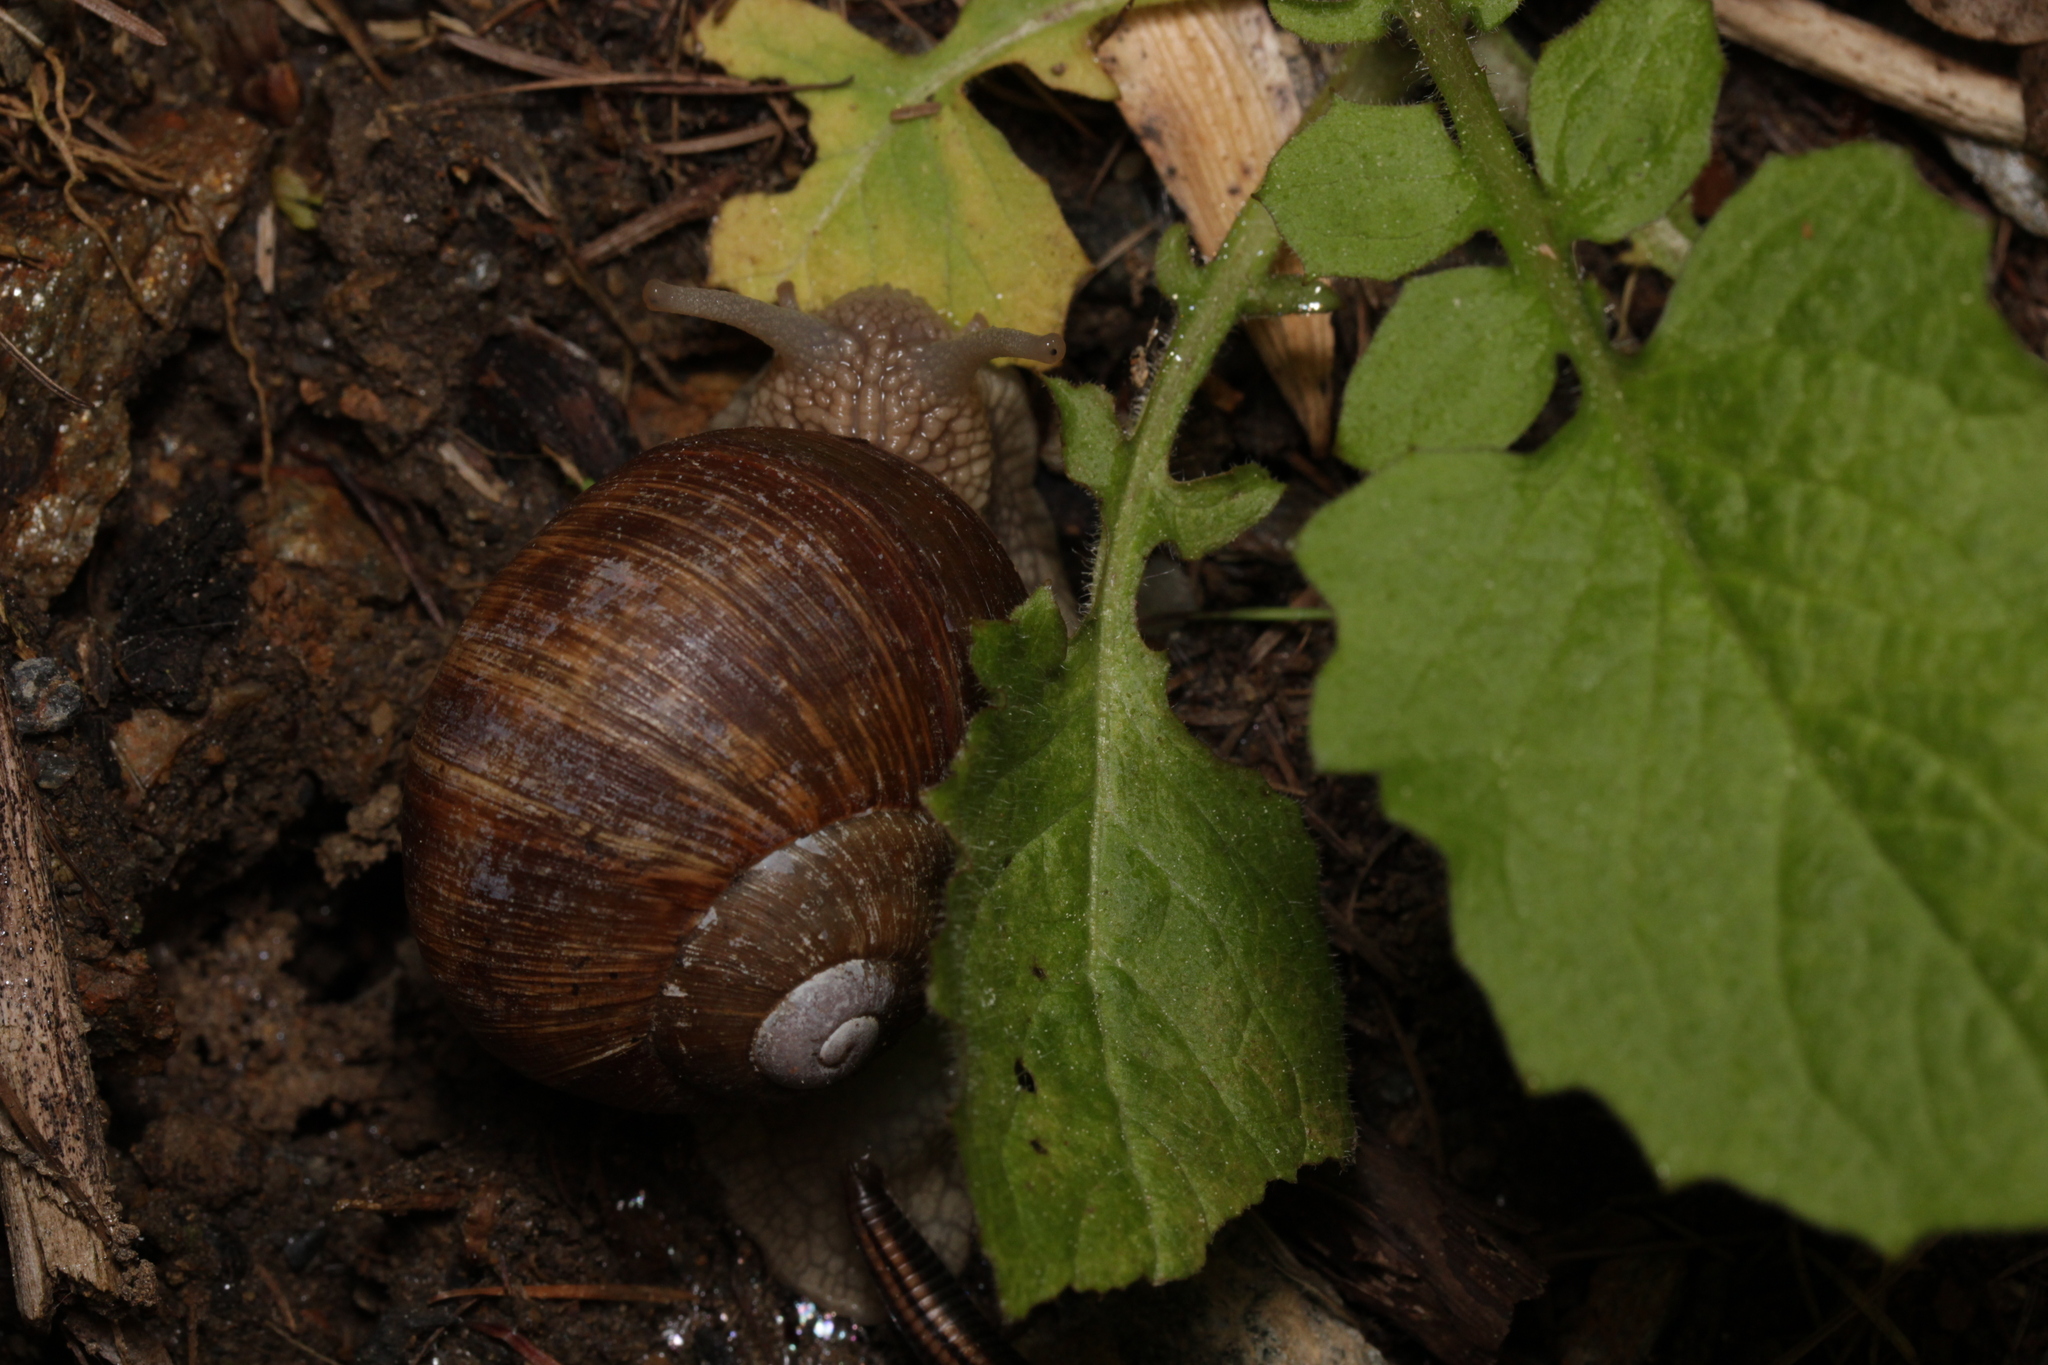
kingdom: Animalia
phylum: Mollusca
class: Gastropoda
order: Stylommatophora
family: Helicidae
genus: Helix
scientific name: Helix pomatia
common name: Roman snail
